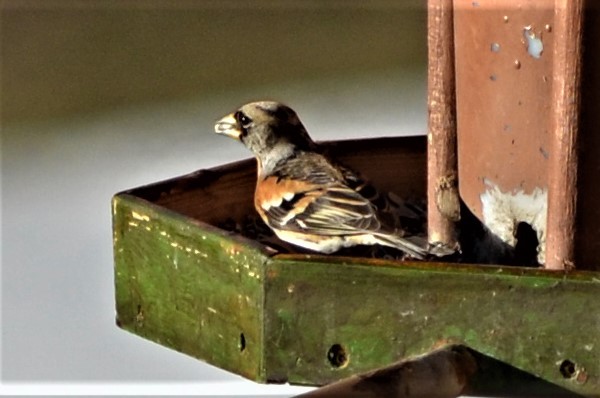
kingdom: Animalia
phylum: Chordata
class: Aves
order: Passeriformes
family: Fringillidae
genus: Fringilla
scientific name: Fringilla montifringilla
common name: Brambling
